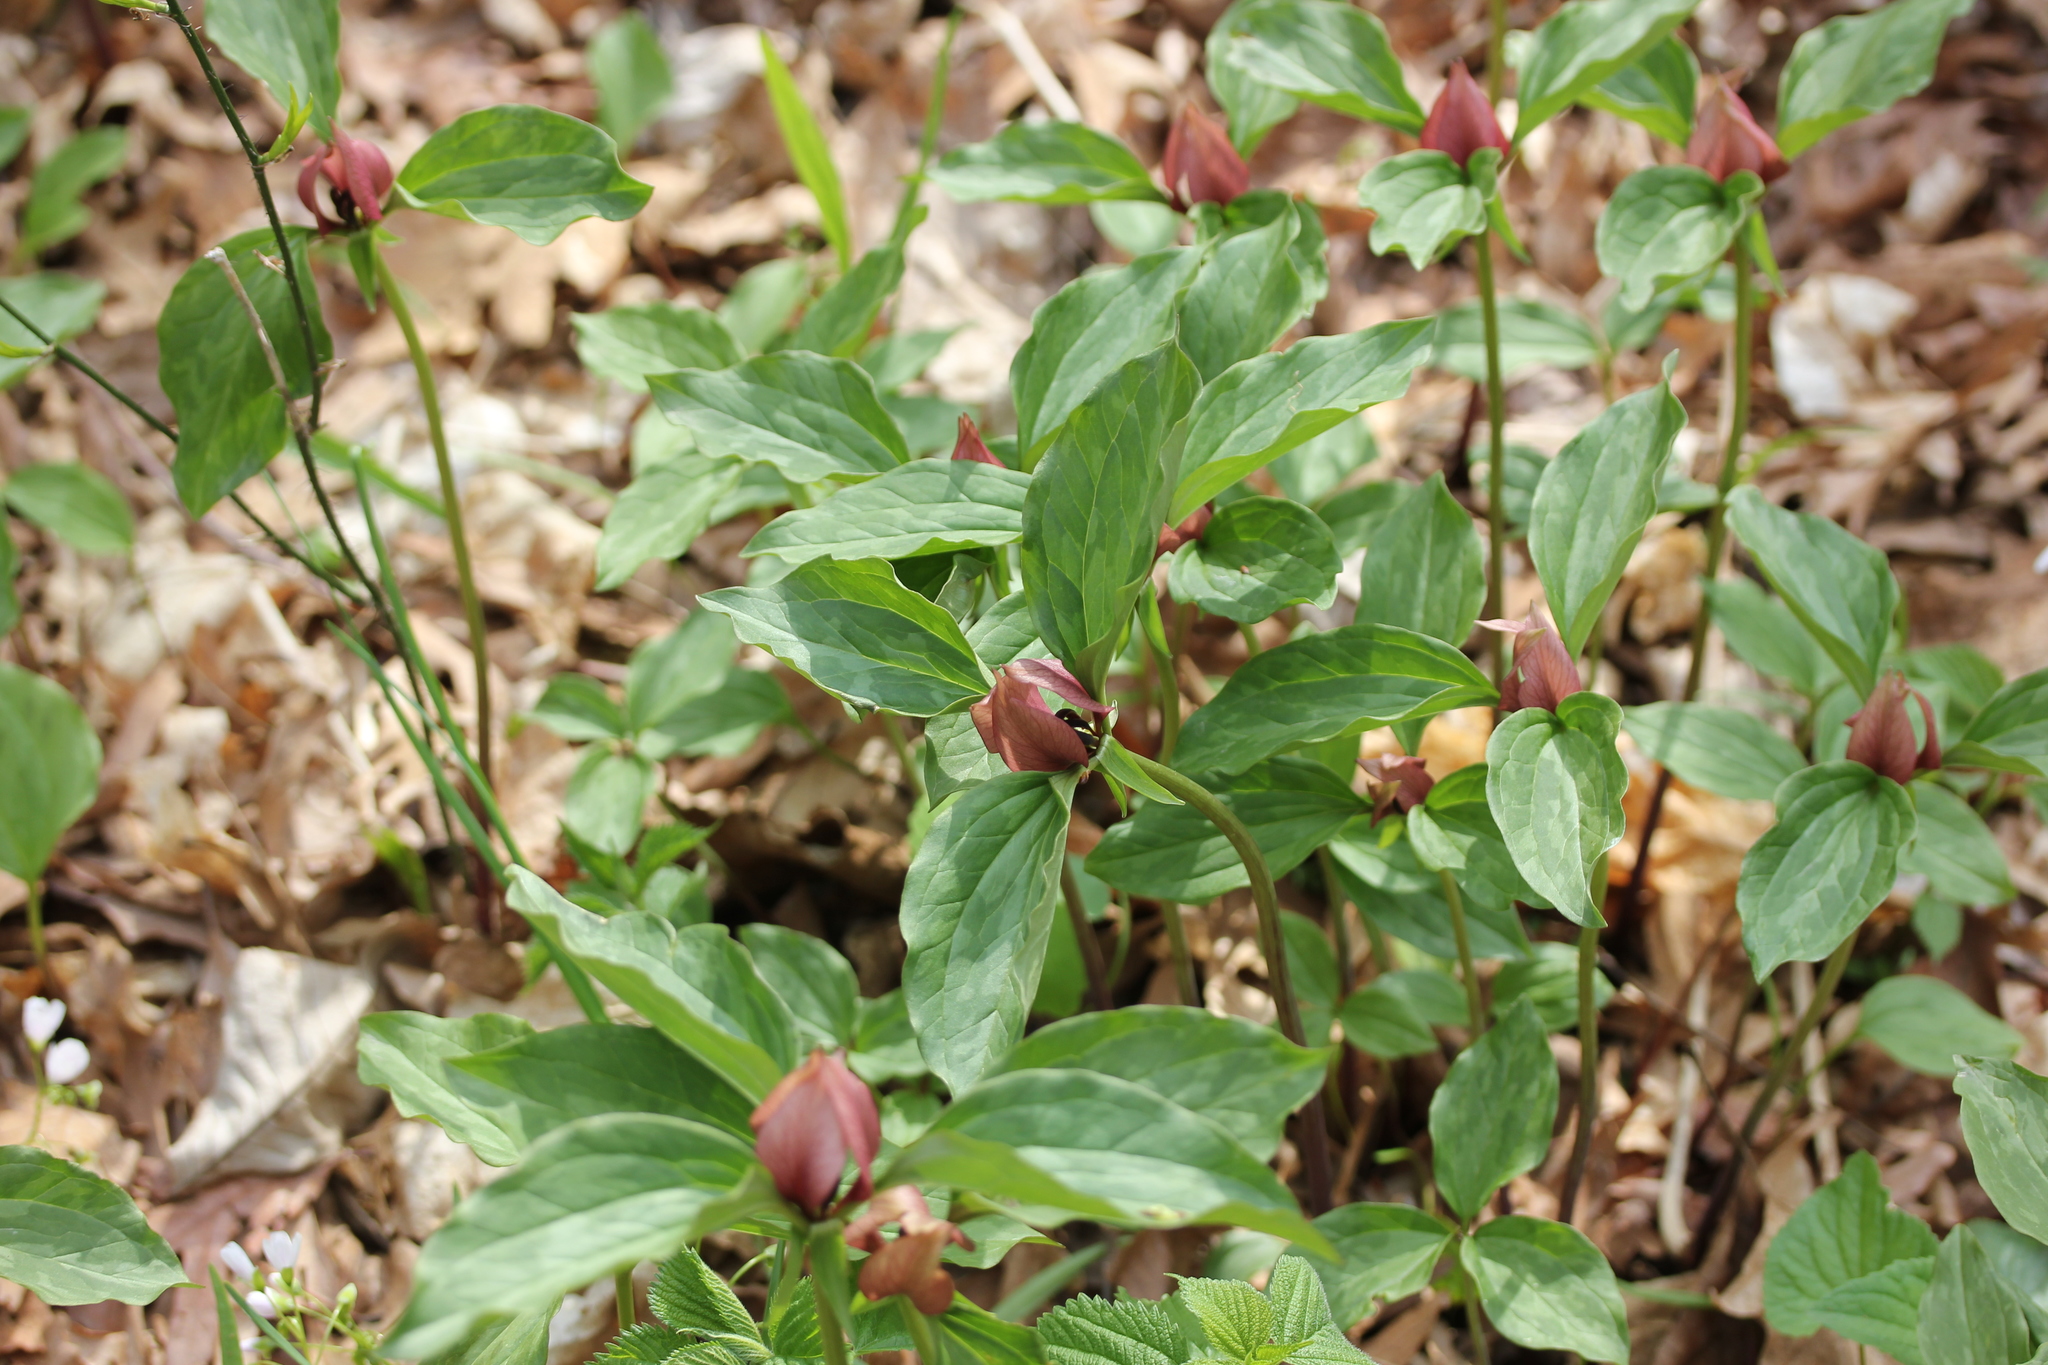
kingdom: Plantae
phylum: Tracheophyta
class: Liliopsida
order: Liliales
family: Melanthiaceae
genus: Trillium
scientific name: Trillium recurvatum
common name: Bloody butcher
